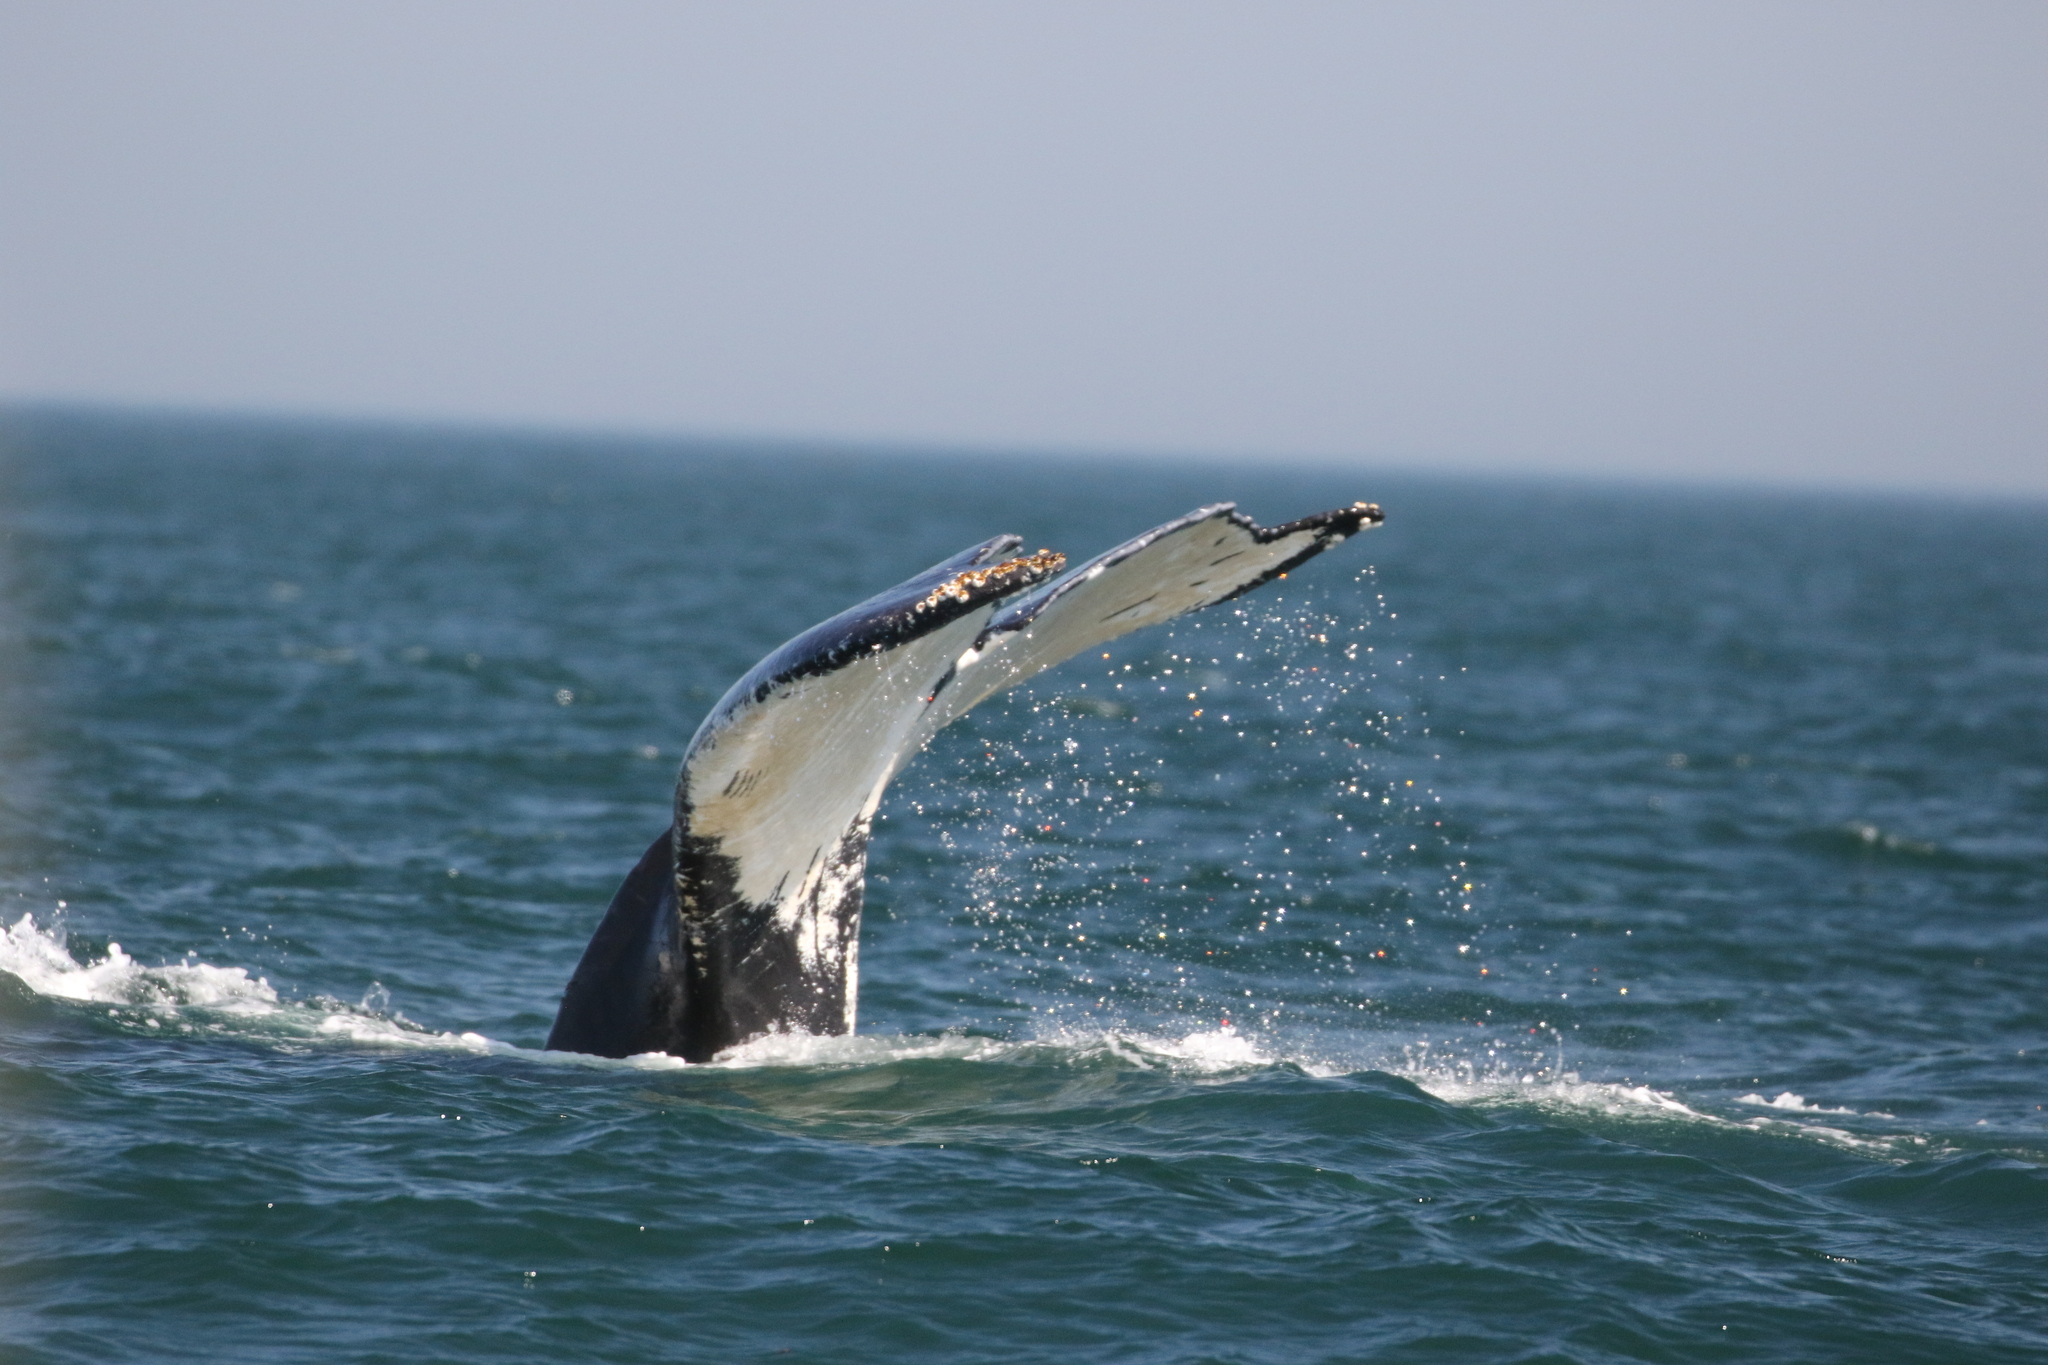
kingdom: Animalia
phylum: Chordata
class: Mammalia
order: Cetacea
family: Balaenopteridae
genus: Megaptera
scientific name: Megaptera novaeangliae
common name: Humpback whale
